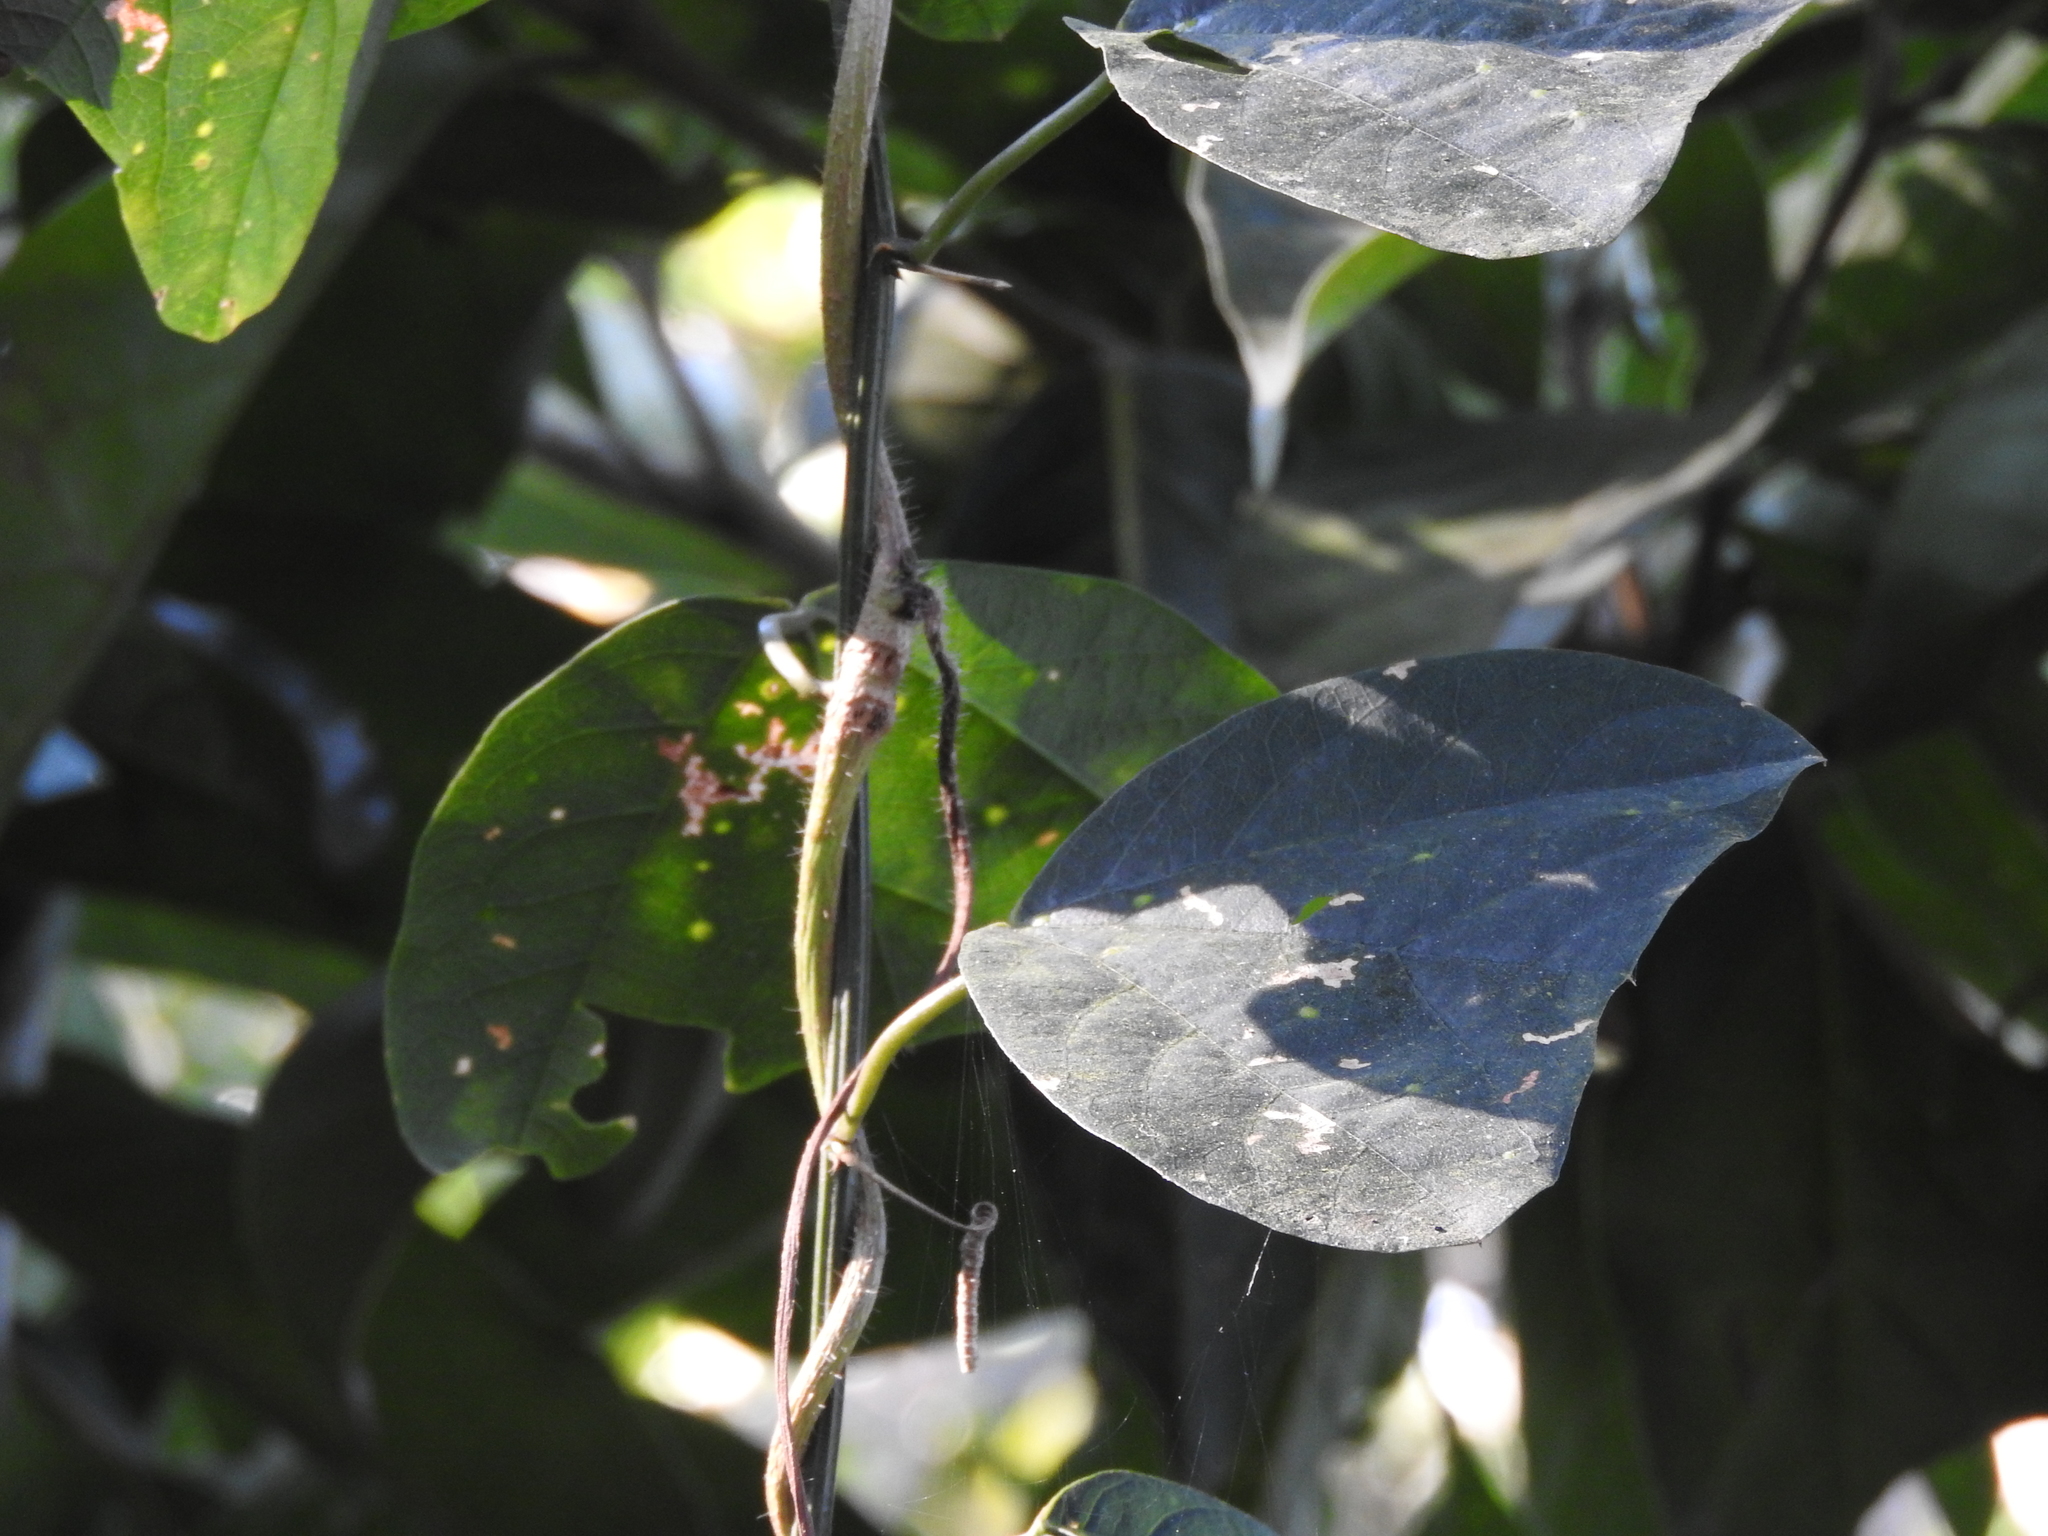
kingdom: Plantae
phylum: Tracheophyta
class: Magnoliopsida
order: Malpighiales
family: Passifloraceae
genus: Passiflora
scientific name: Passiflora biflora
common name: Twoflower passionflower
